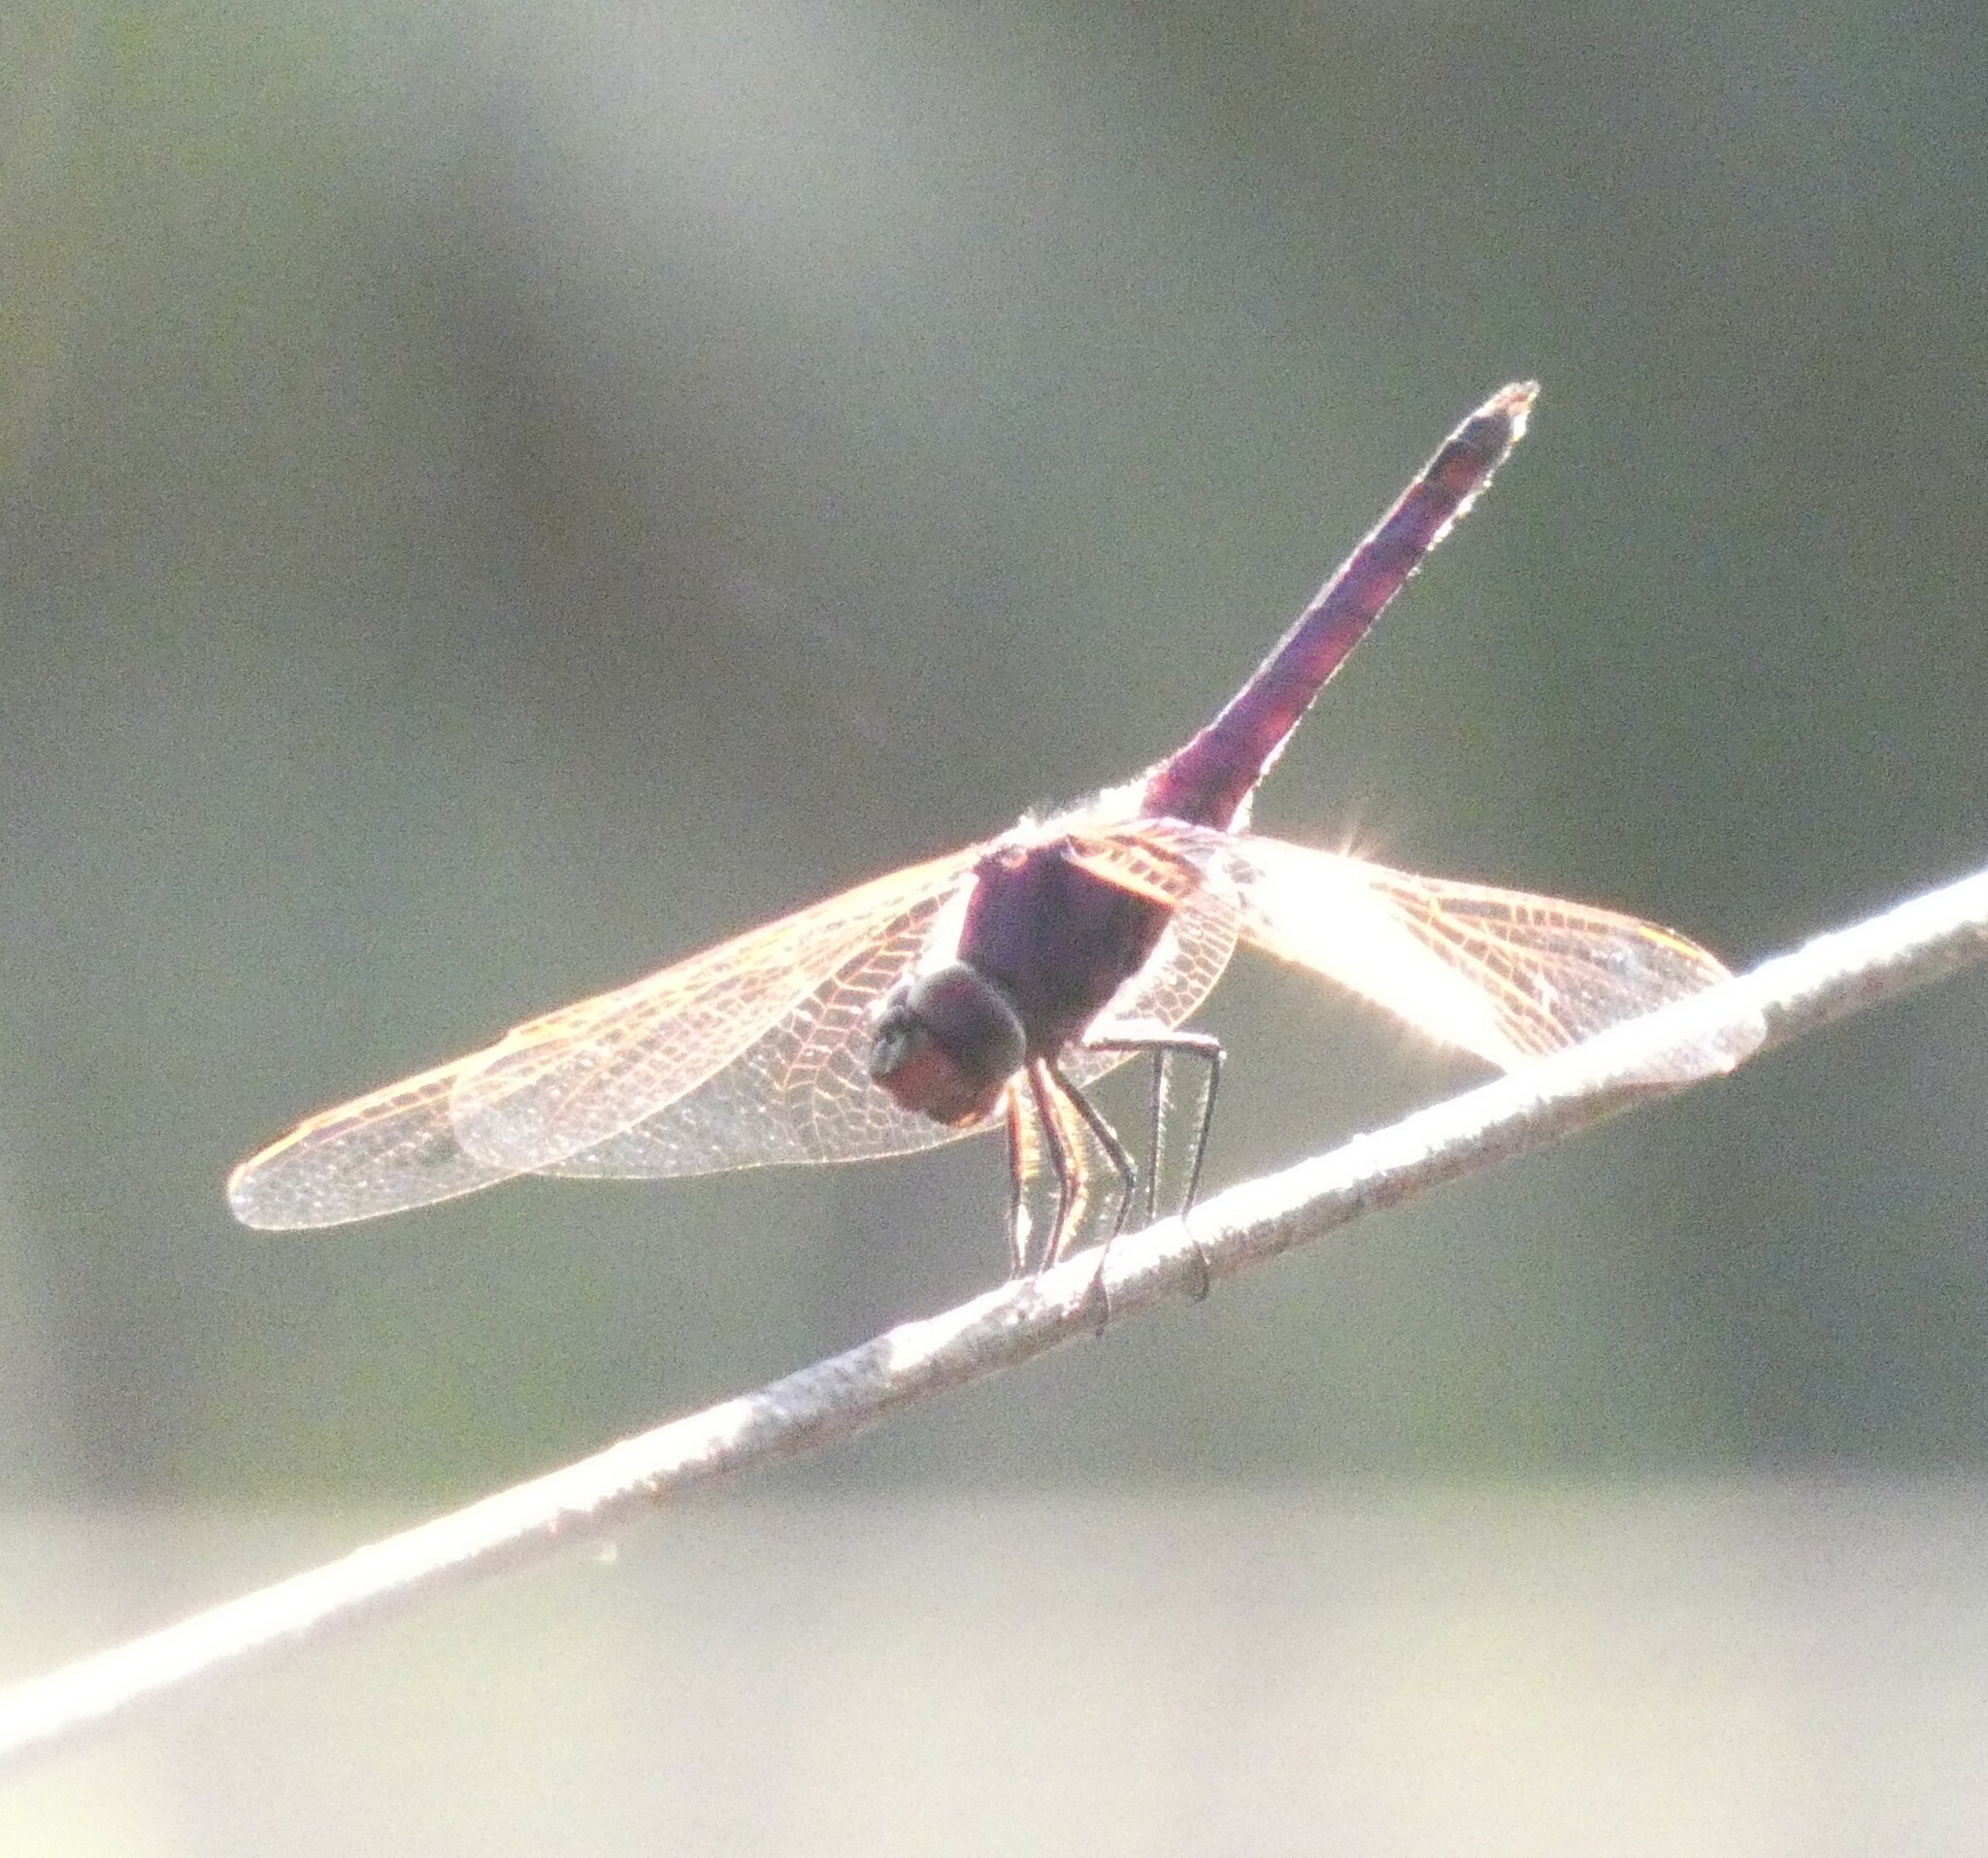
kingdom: Animalia
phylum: Arthropoda
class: Insecta
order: Odonata
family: Libellulidae
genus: Trithemis
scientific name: Trithemis annulata
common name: Violet dropwing
